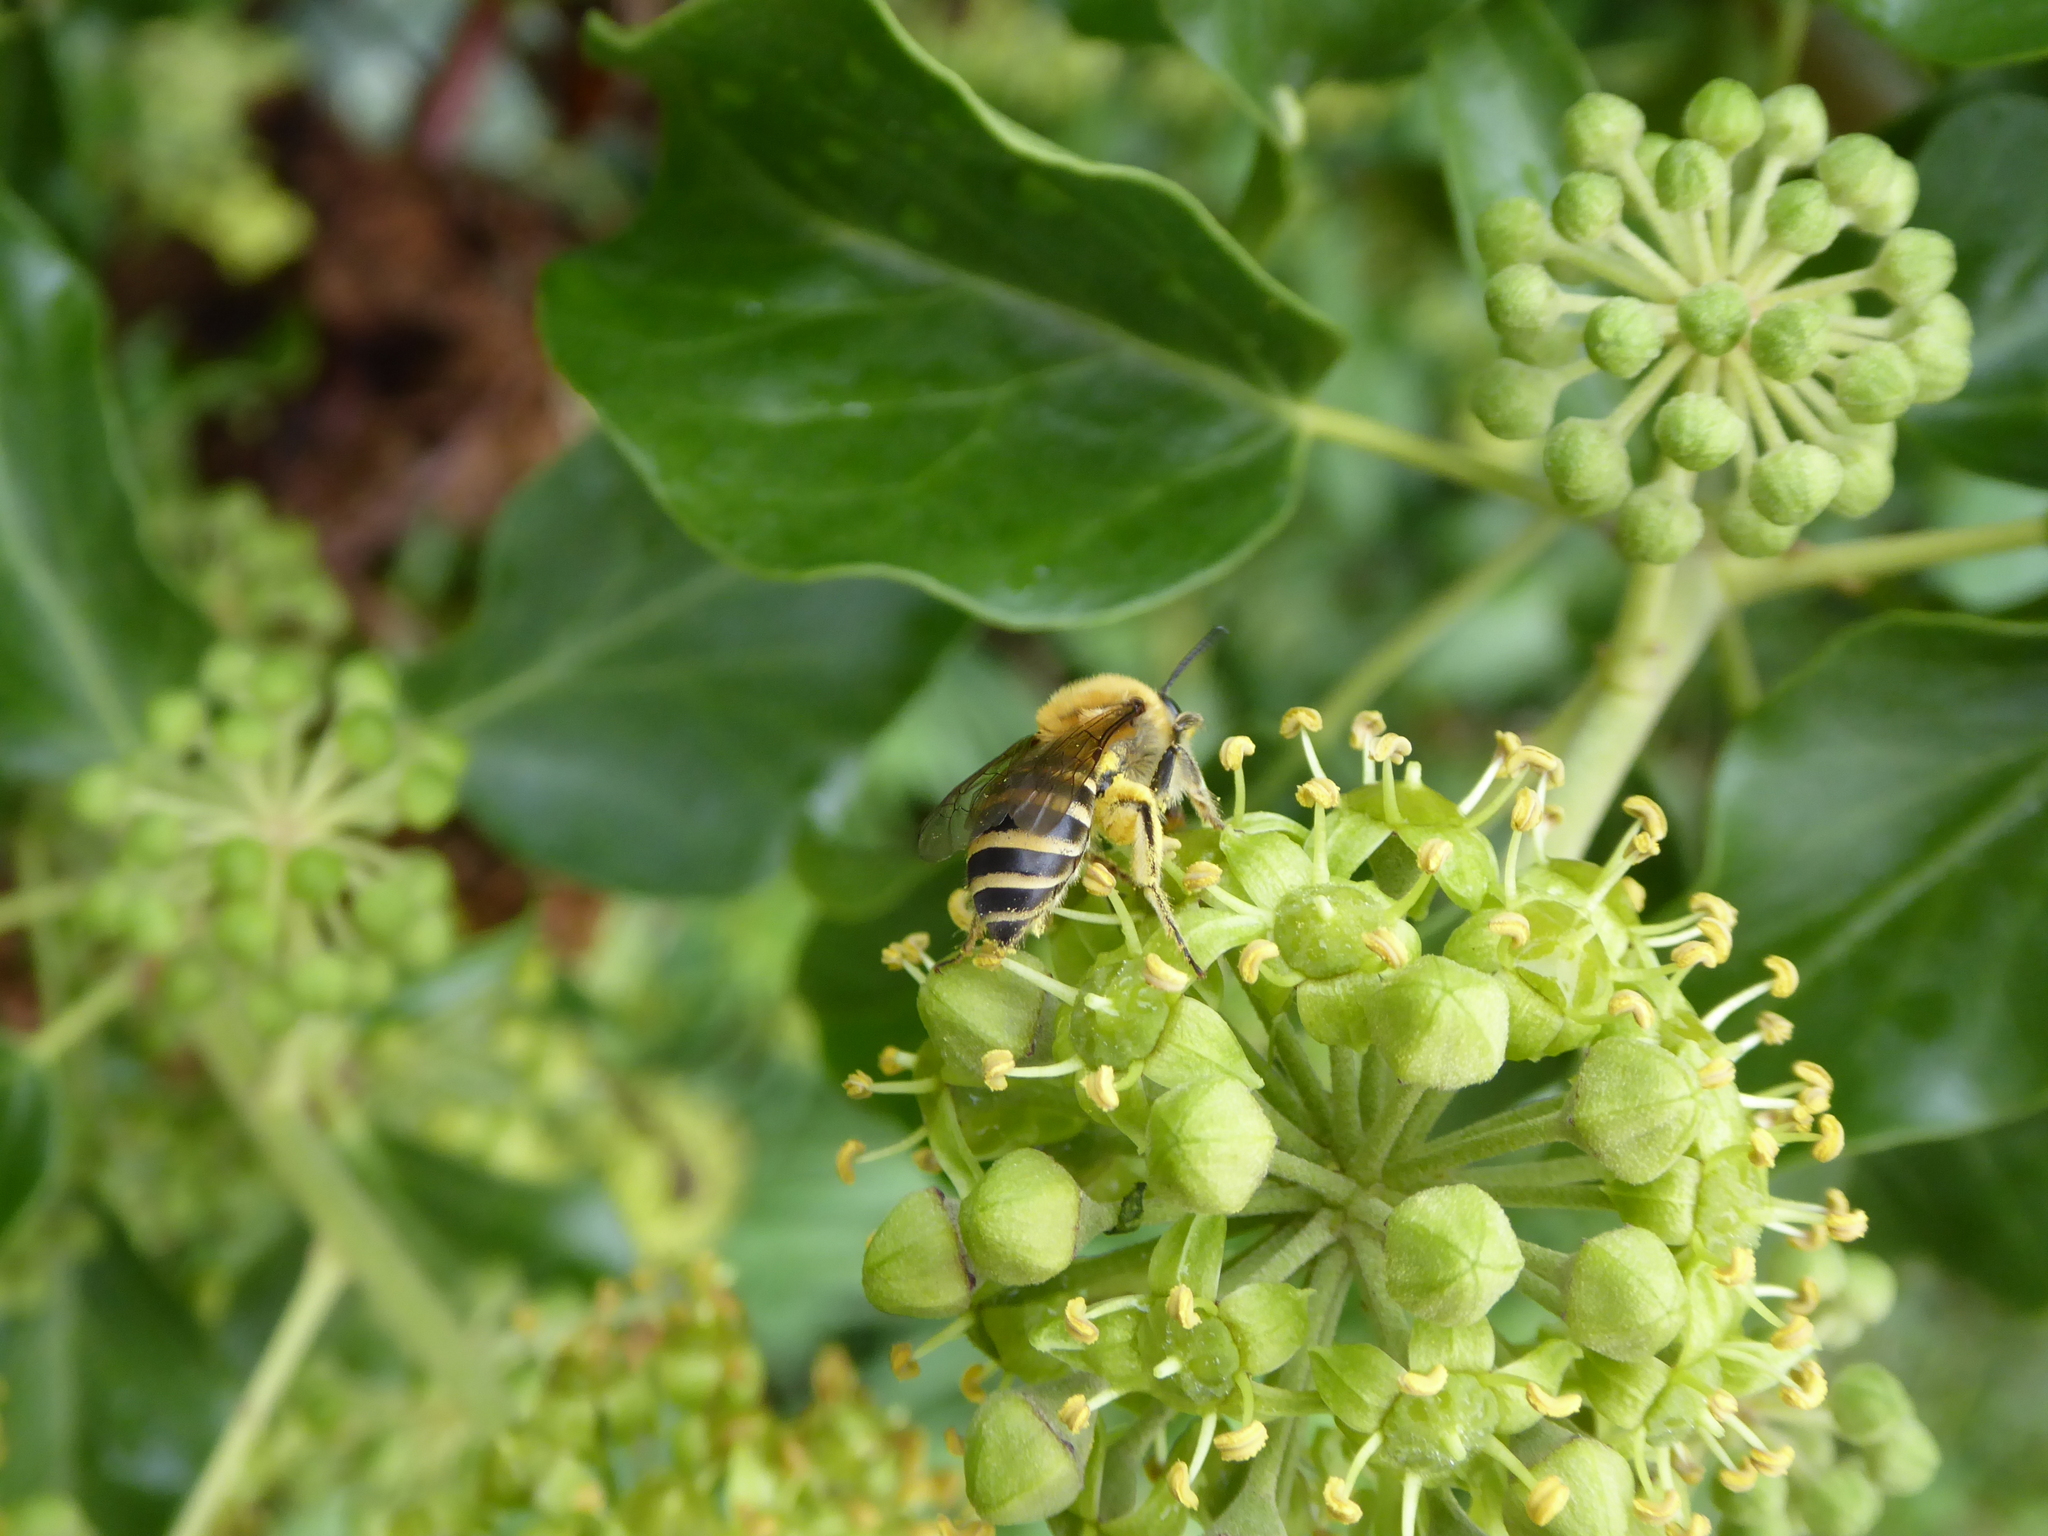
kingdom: Animalia
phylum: Arthropoda
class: Insecta
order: Hymenoptera
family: Colletidae
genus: Colletes
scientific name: Colletes hederae
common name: Ivy bee
